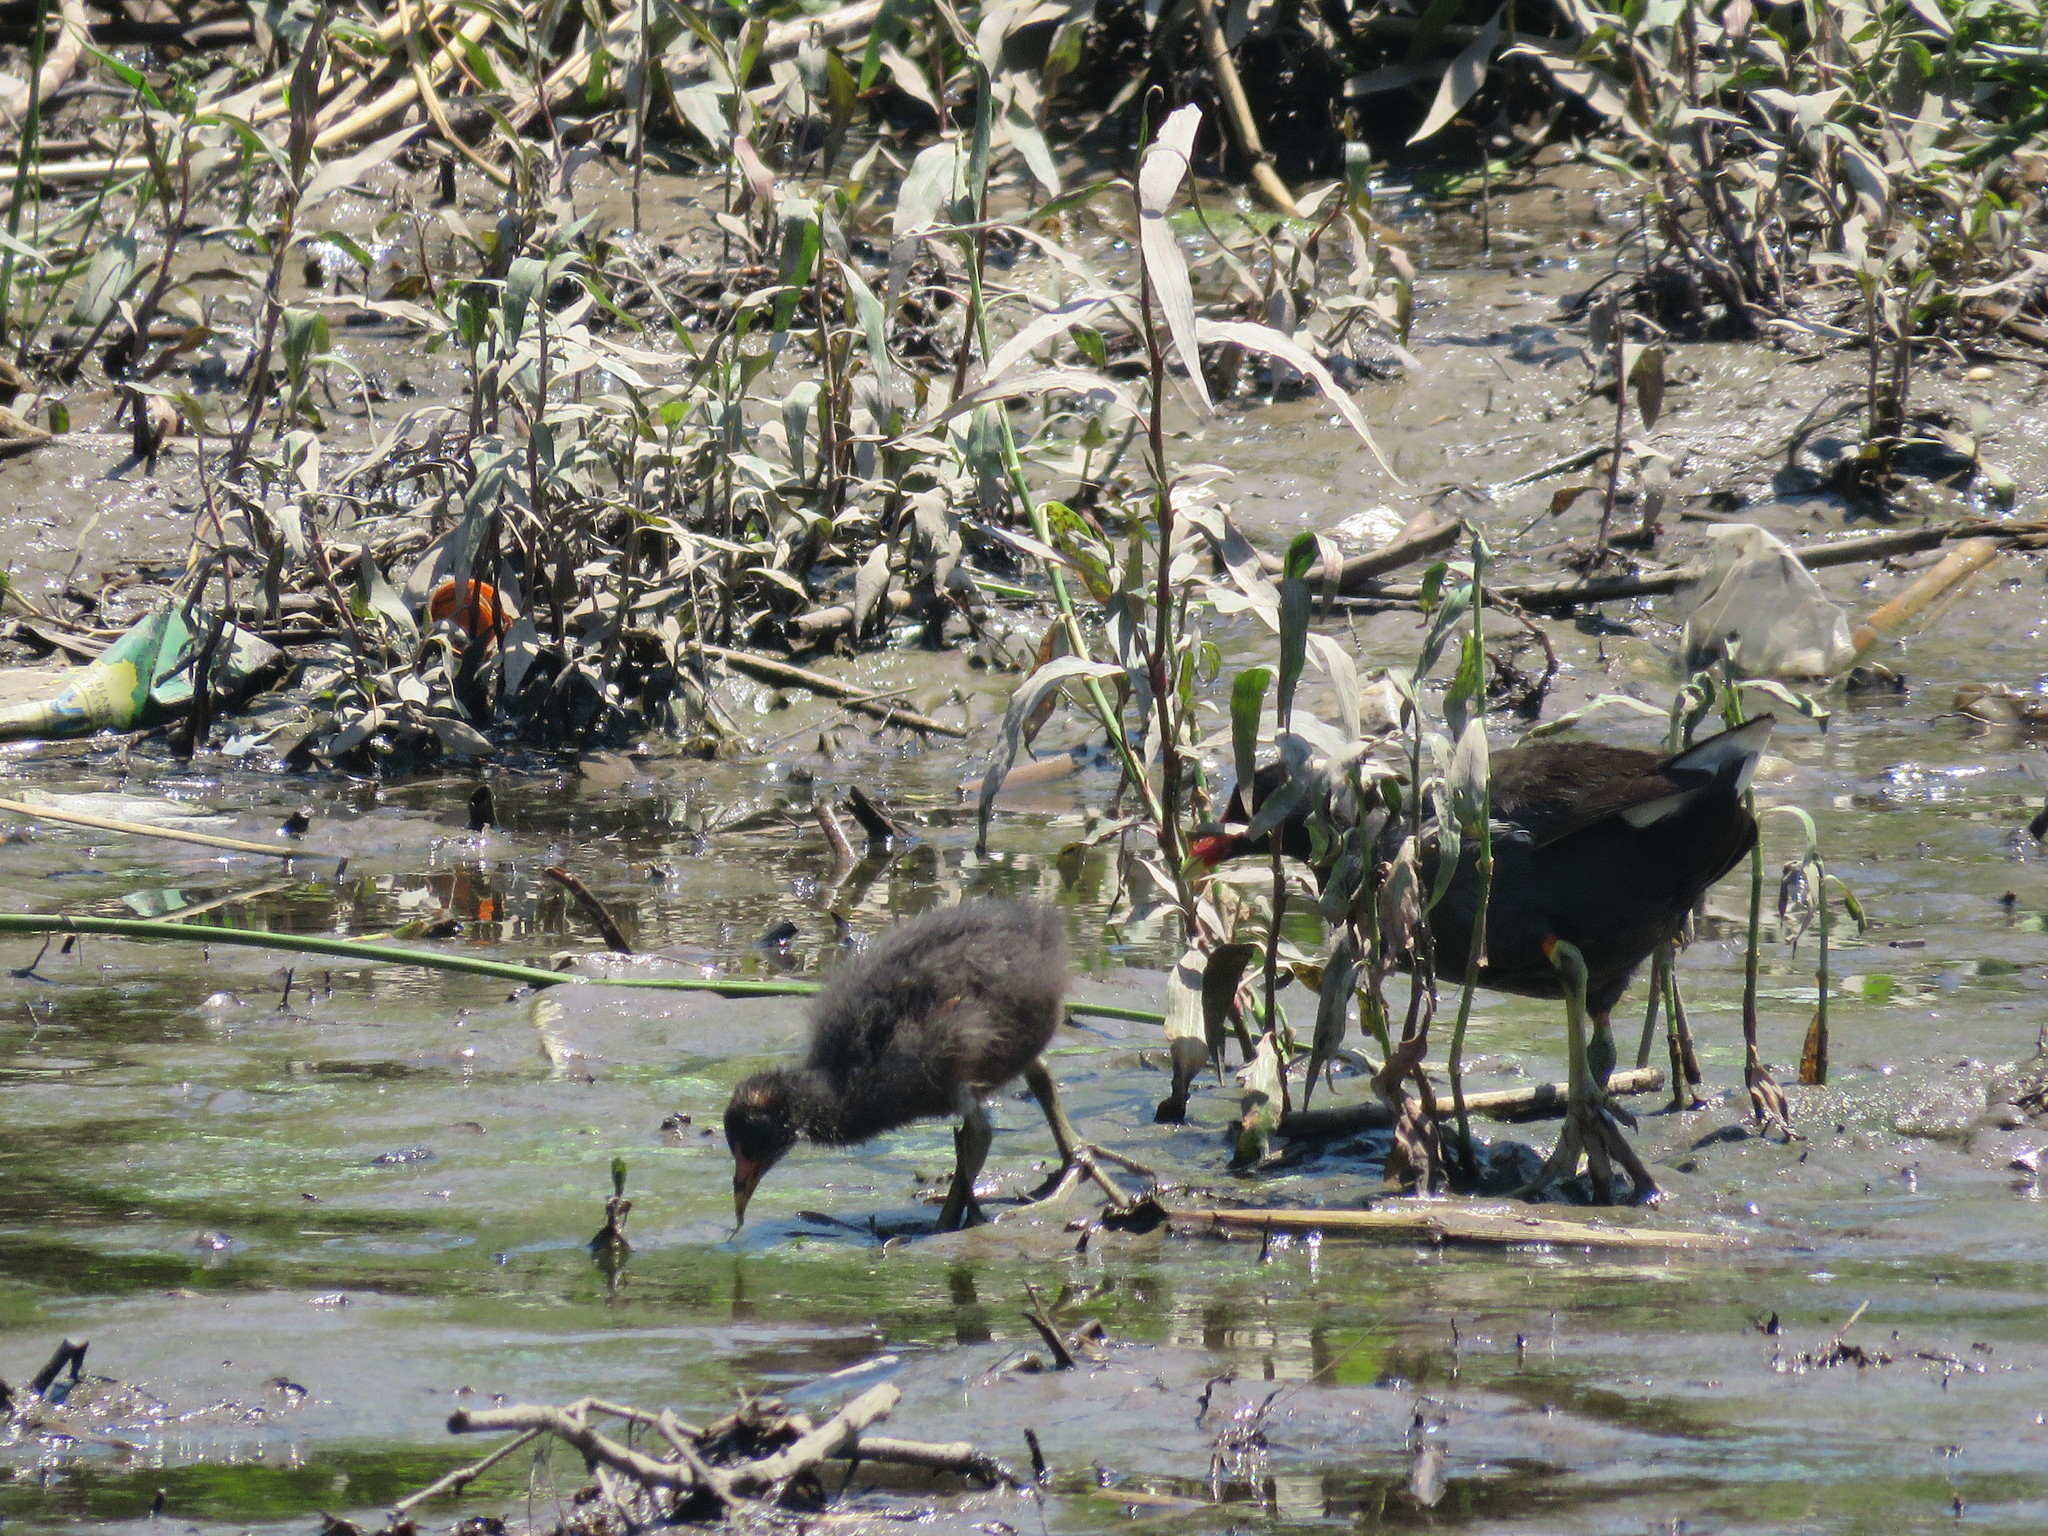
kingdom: Animalia
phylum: Chordata
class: Aves
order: Gruiformes
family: Rallidae
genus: Gallinula
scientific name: Gallinula chloropus
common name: Common moorhen
